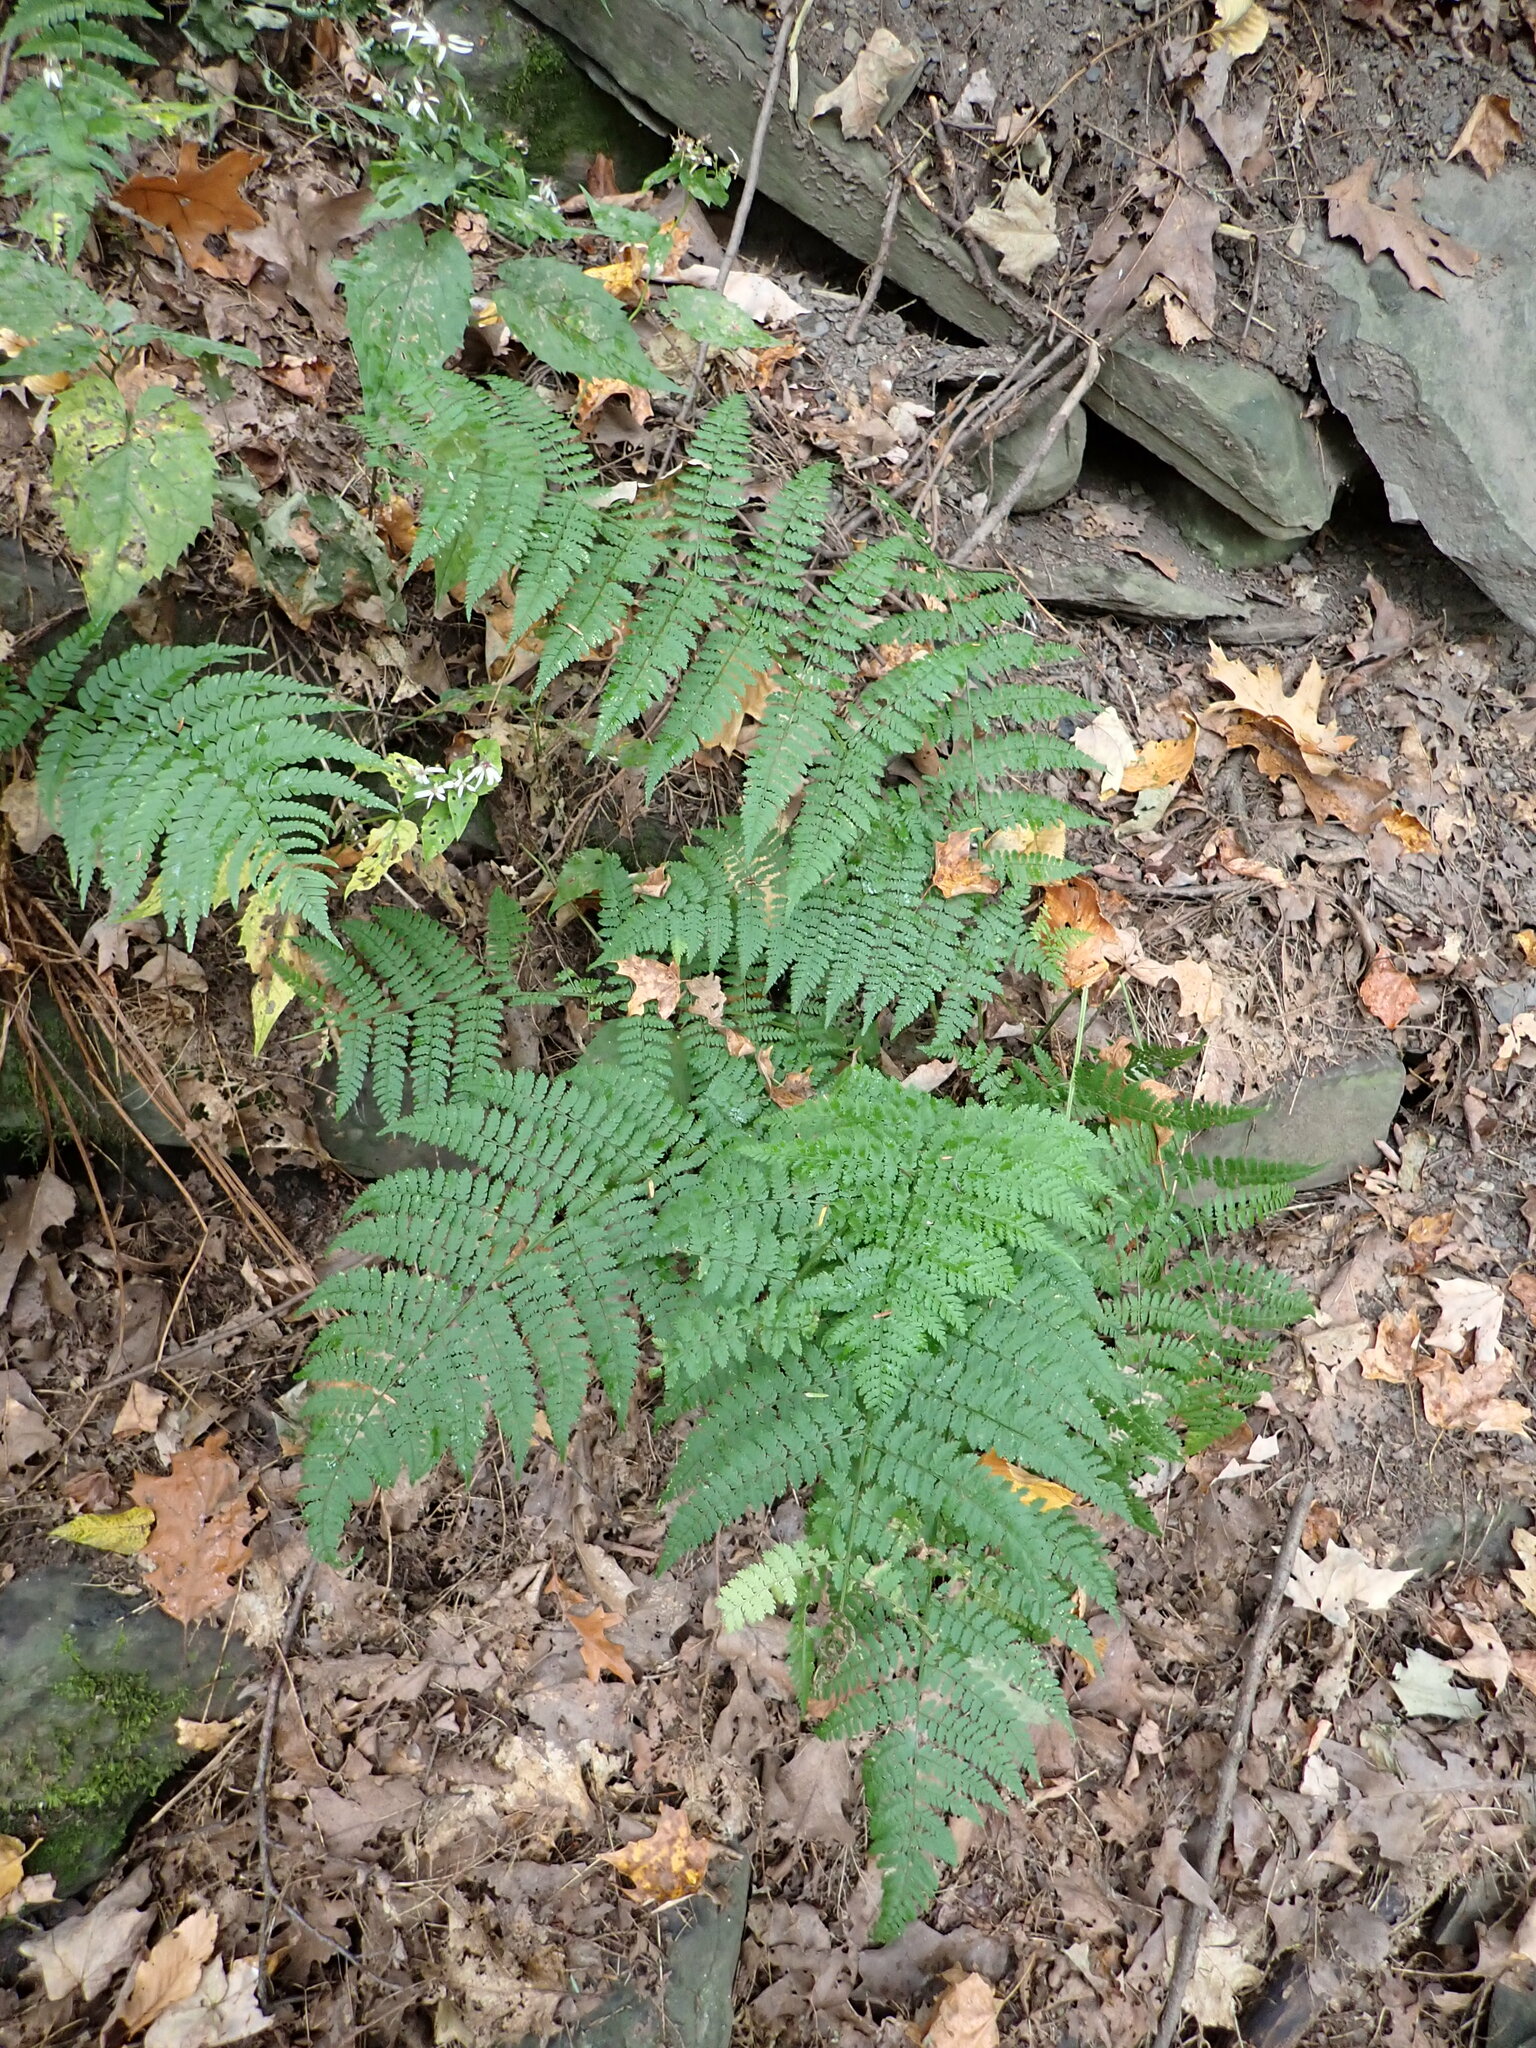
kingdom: Plantae
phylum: Tracheophyta
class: Polypodiopsida
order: Polypodiales
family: Dryopteridaceae
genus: Dryopteris
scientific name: Dryopteris intermedia
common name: Evergreen wood fern
